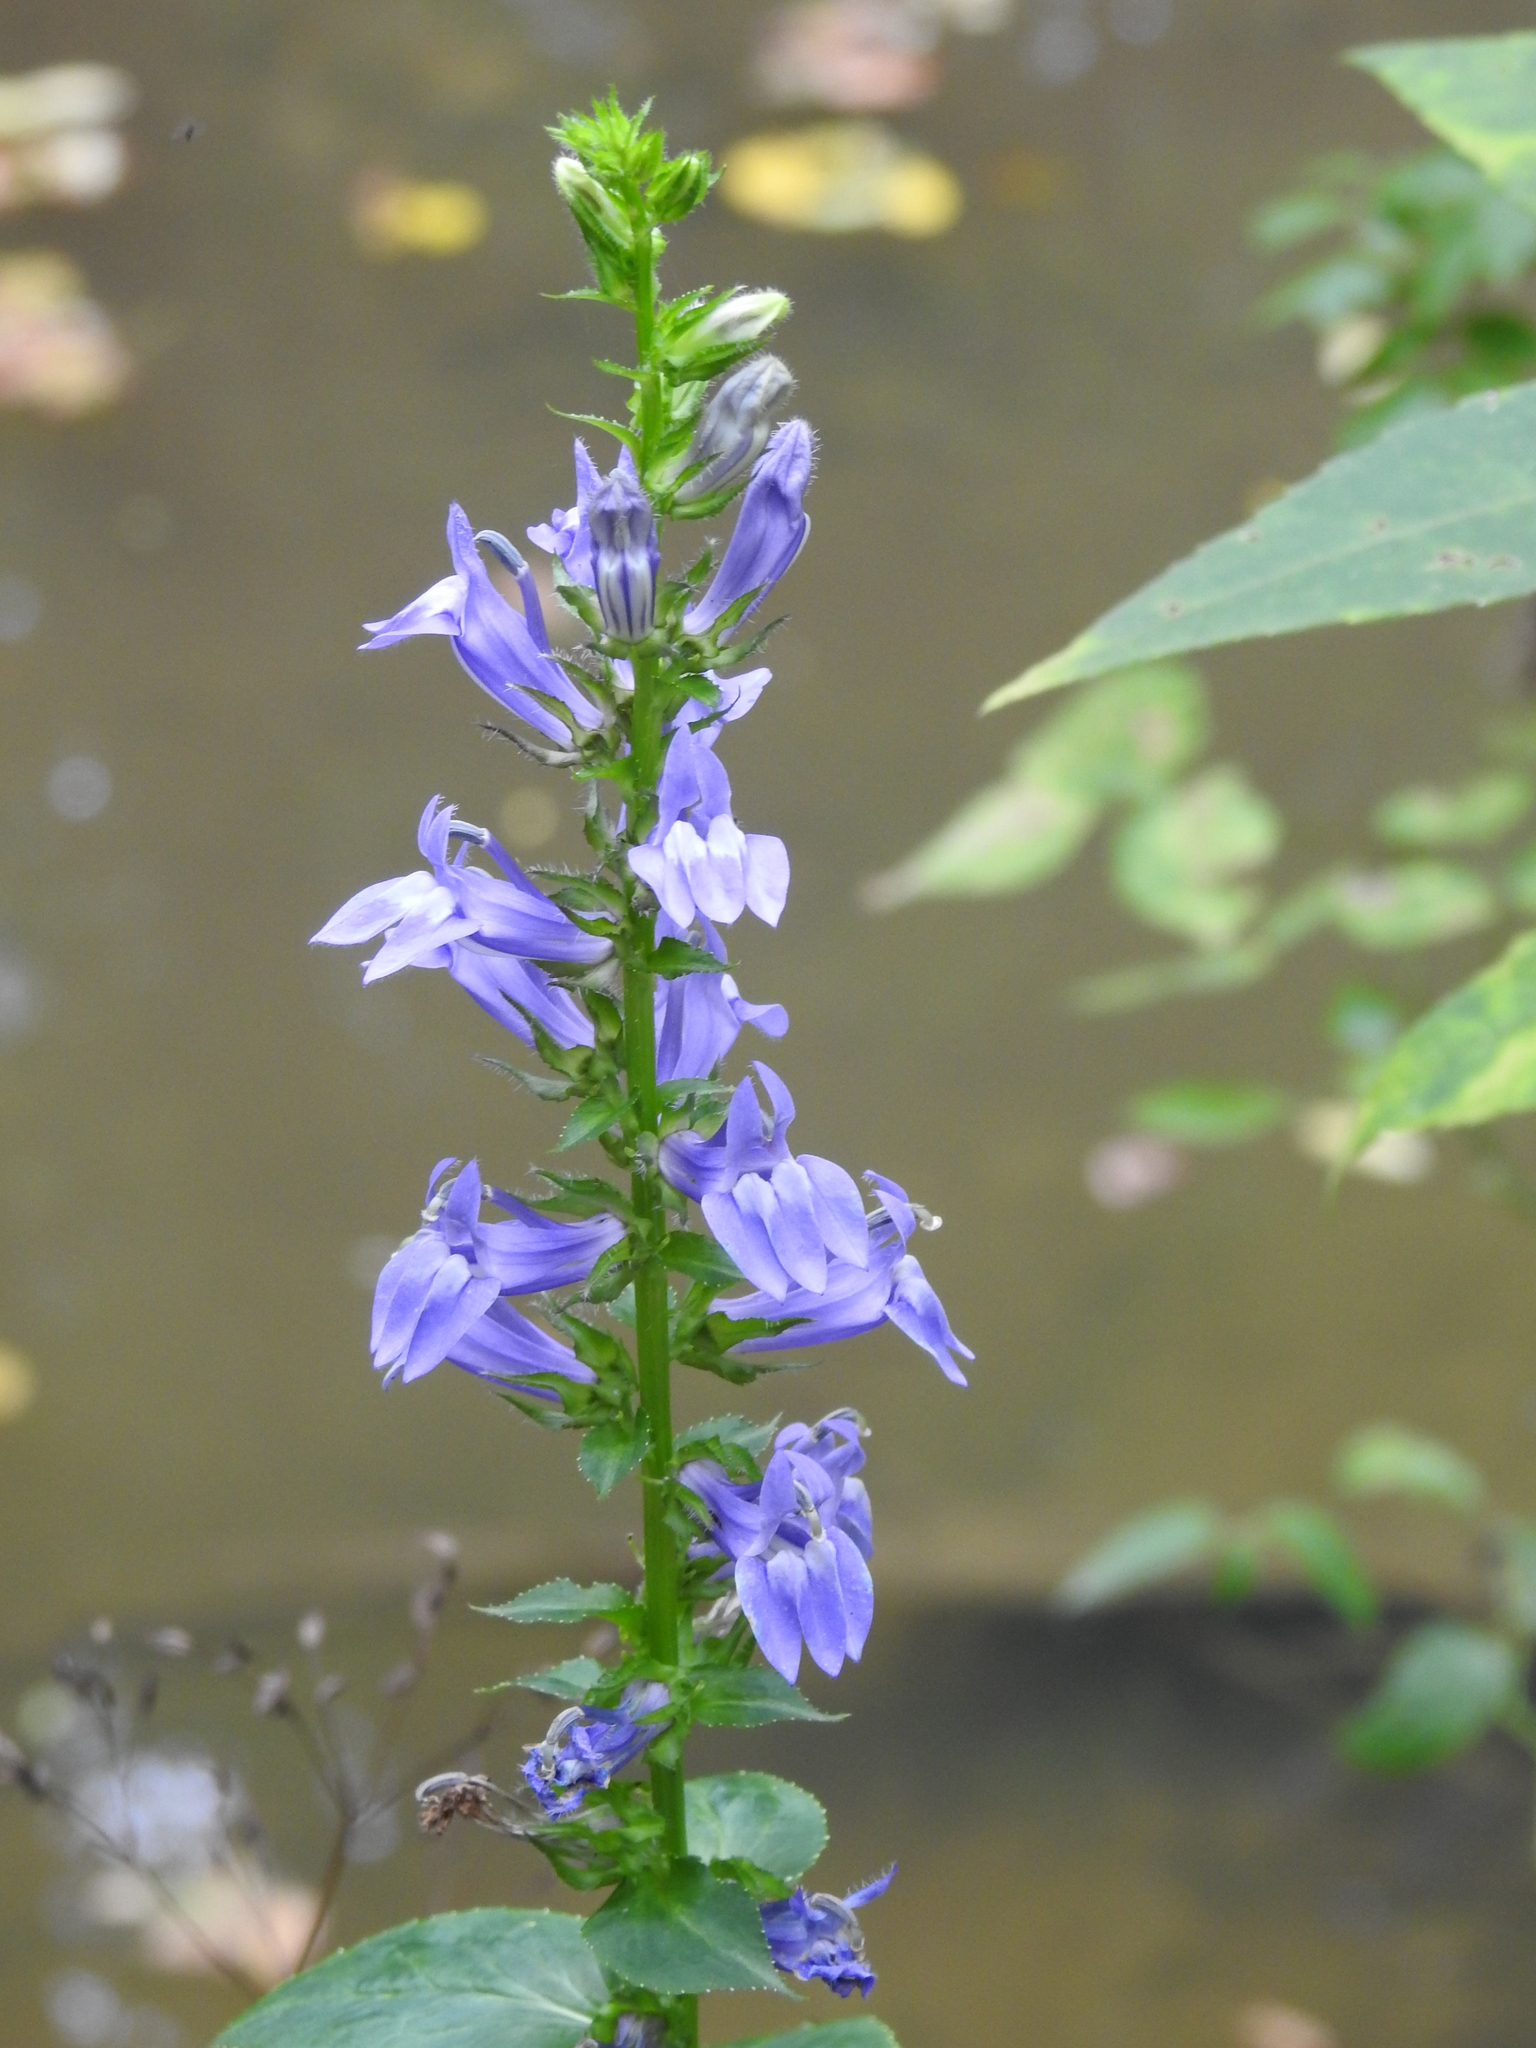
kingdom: Plantae
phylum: Tracheophyta
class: Magnoliopsida
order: Asterales
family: Campanulaceae
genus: Lobelia
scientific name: Lobelia siphilitica
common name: Great lobelia
